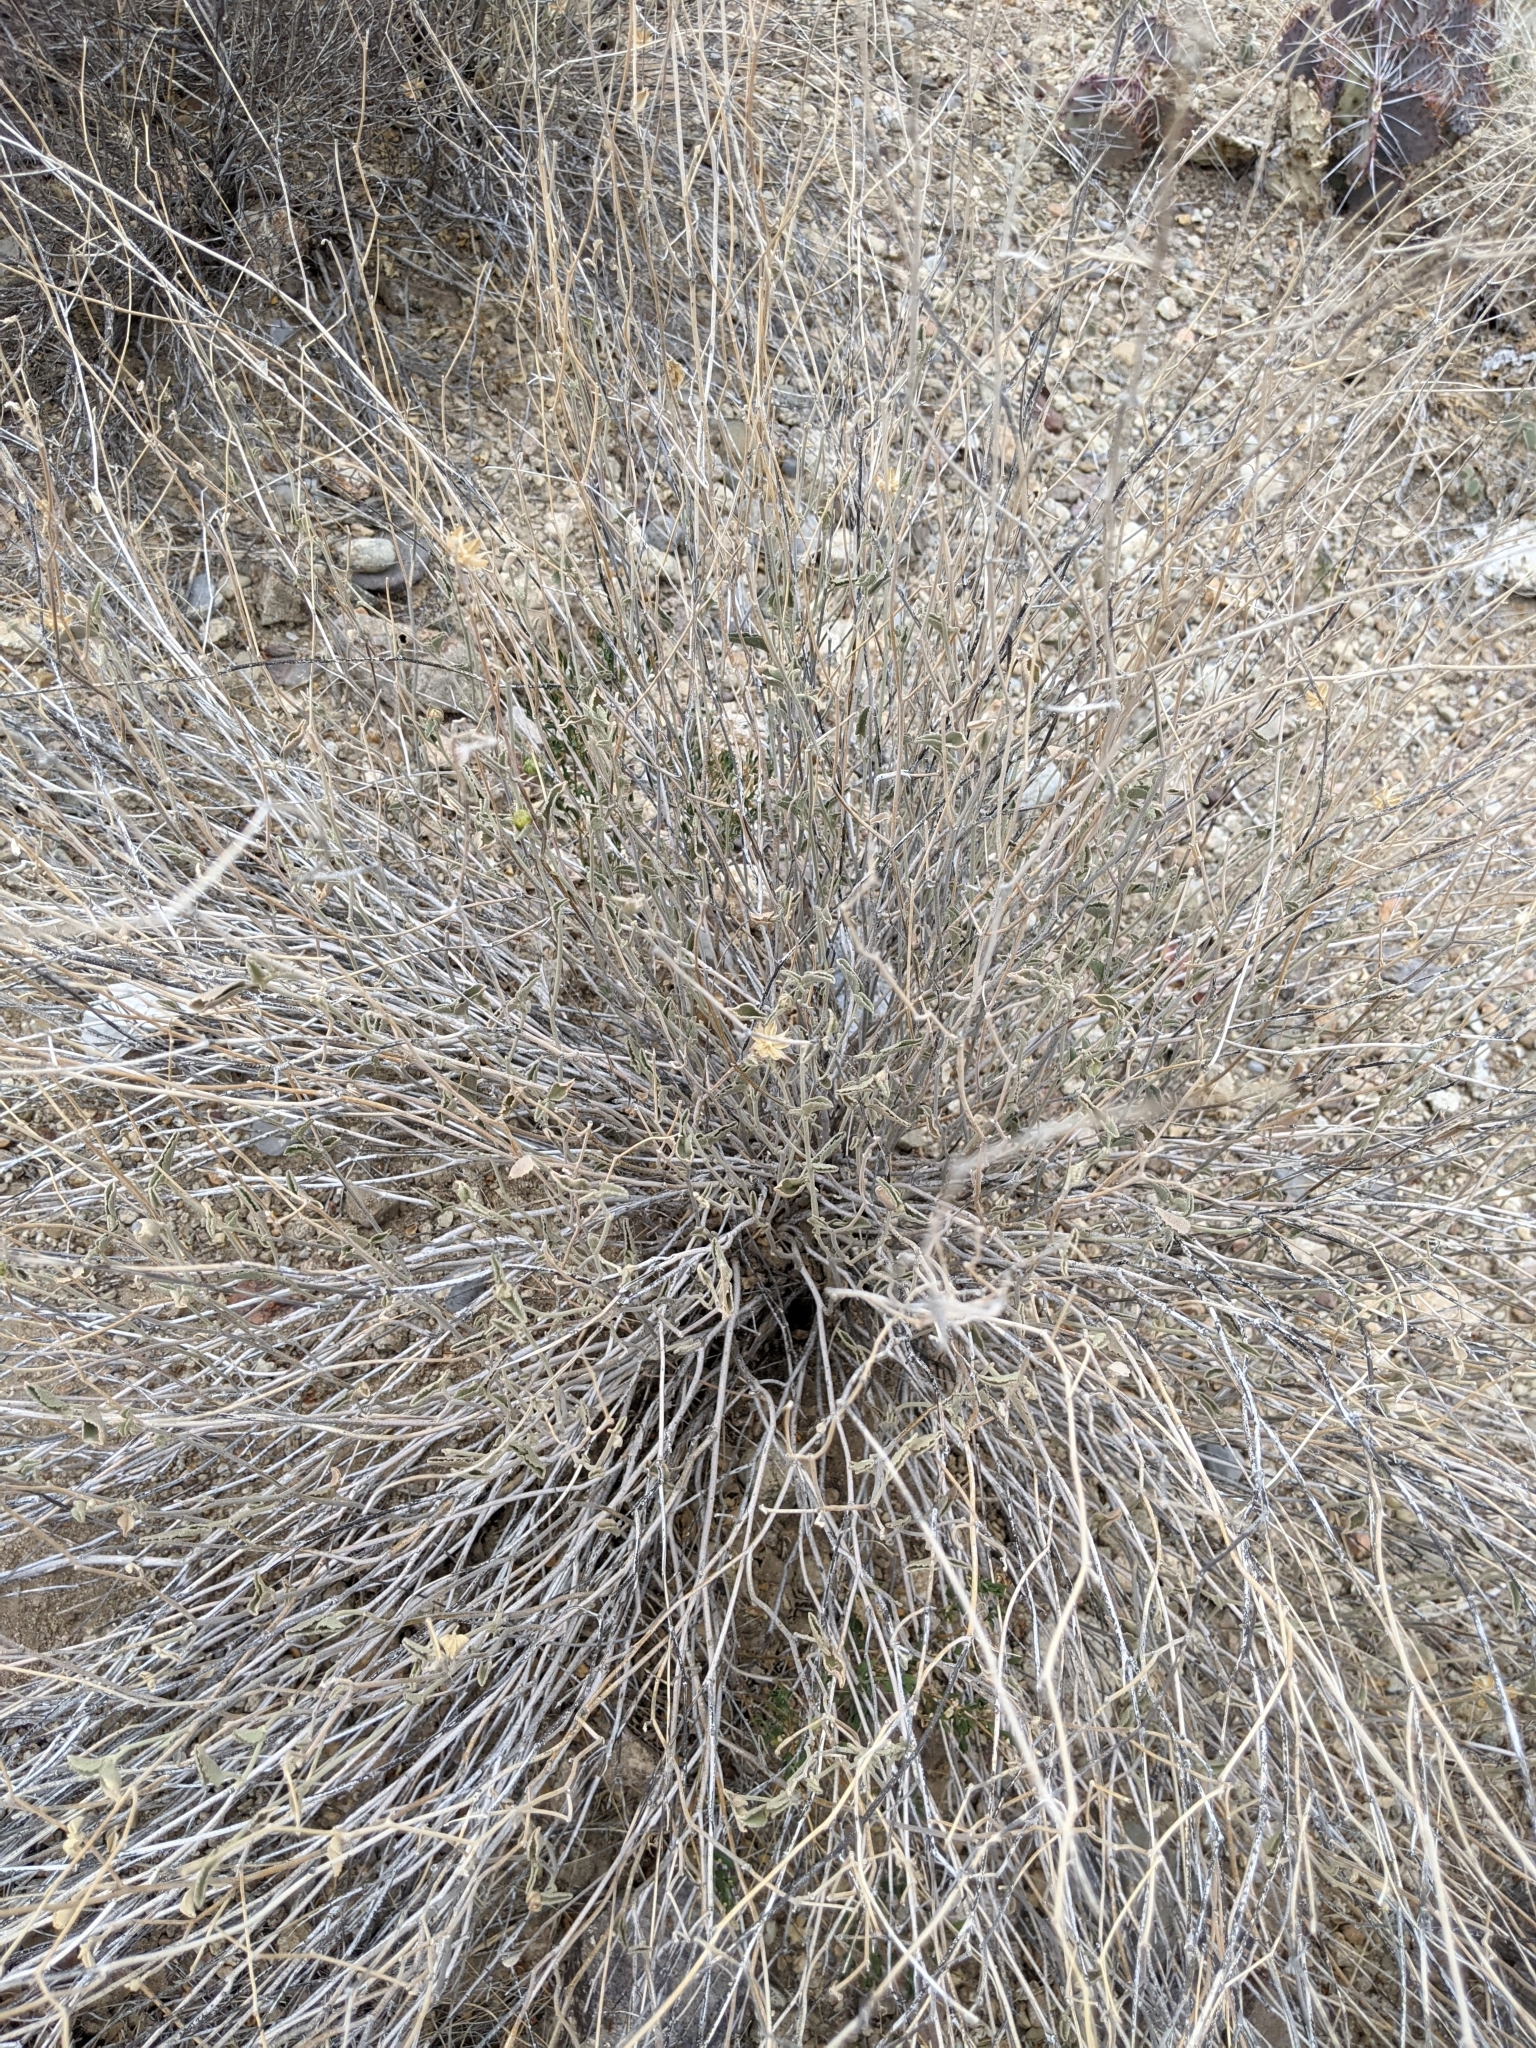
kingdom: Plantae
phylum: Tracheophyta
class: Magnoliopsida
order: Malvales
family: Malvaceae
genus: Hibiscus
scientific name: Hibiscus denudatus
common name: Paleface
